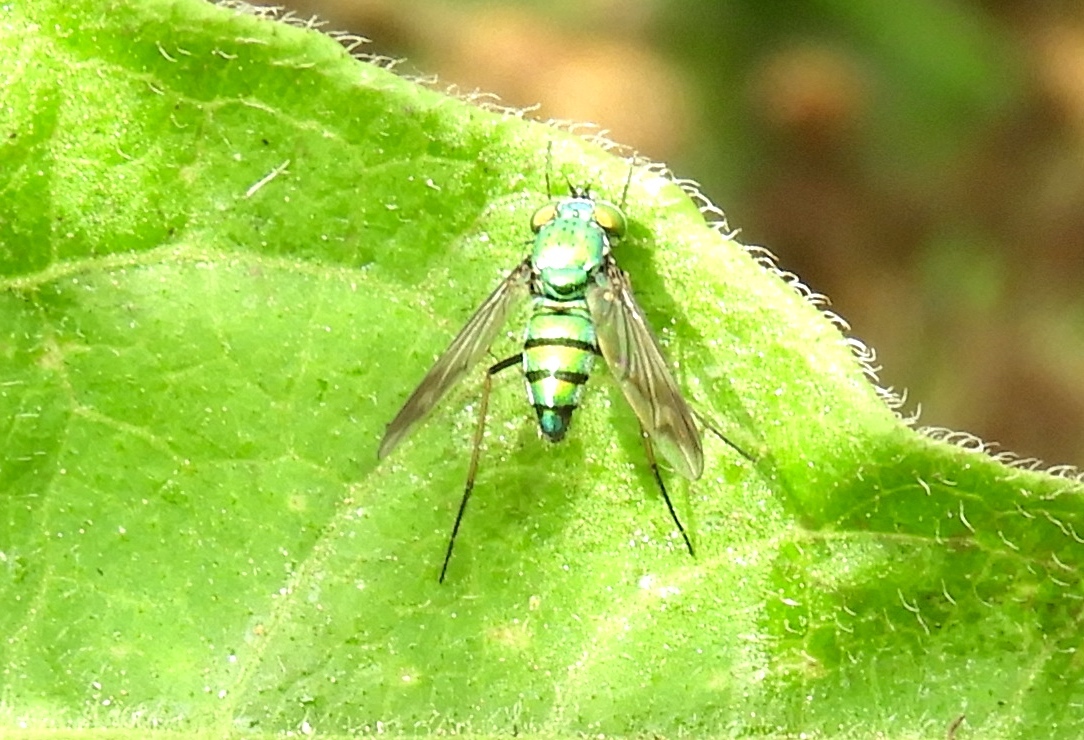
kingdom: Animalia
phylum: Arthropoda
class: Insecta
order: Diptera
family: Dolichopodidae
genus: Condylostylus
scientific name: Condylostylus
